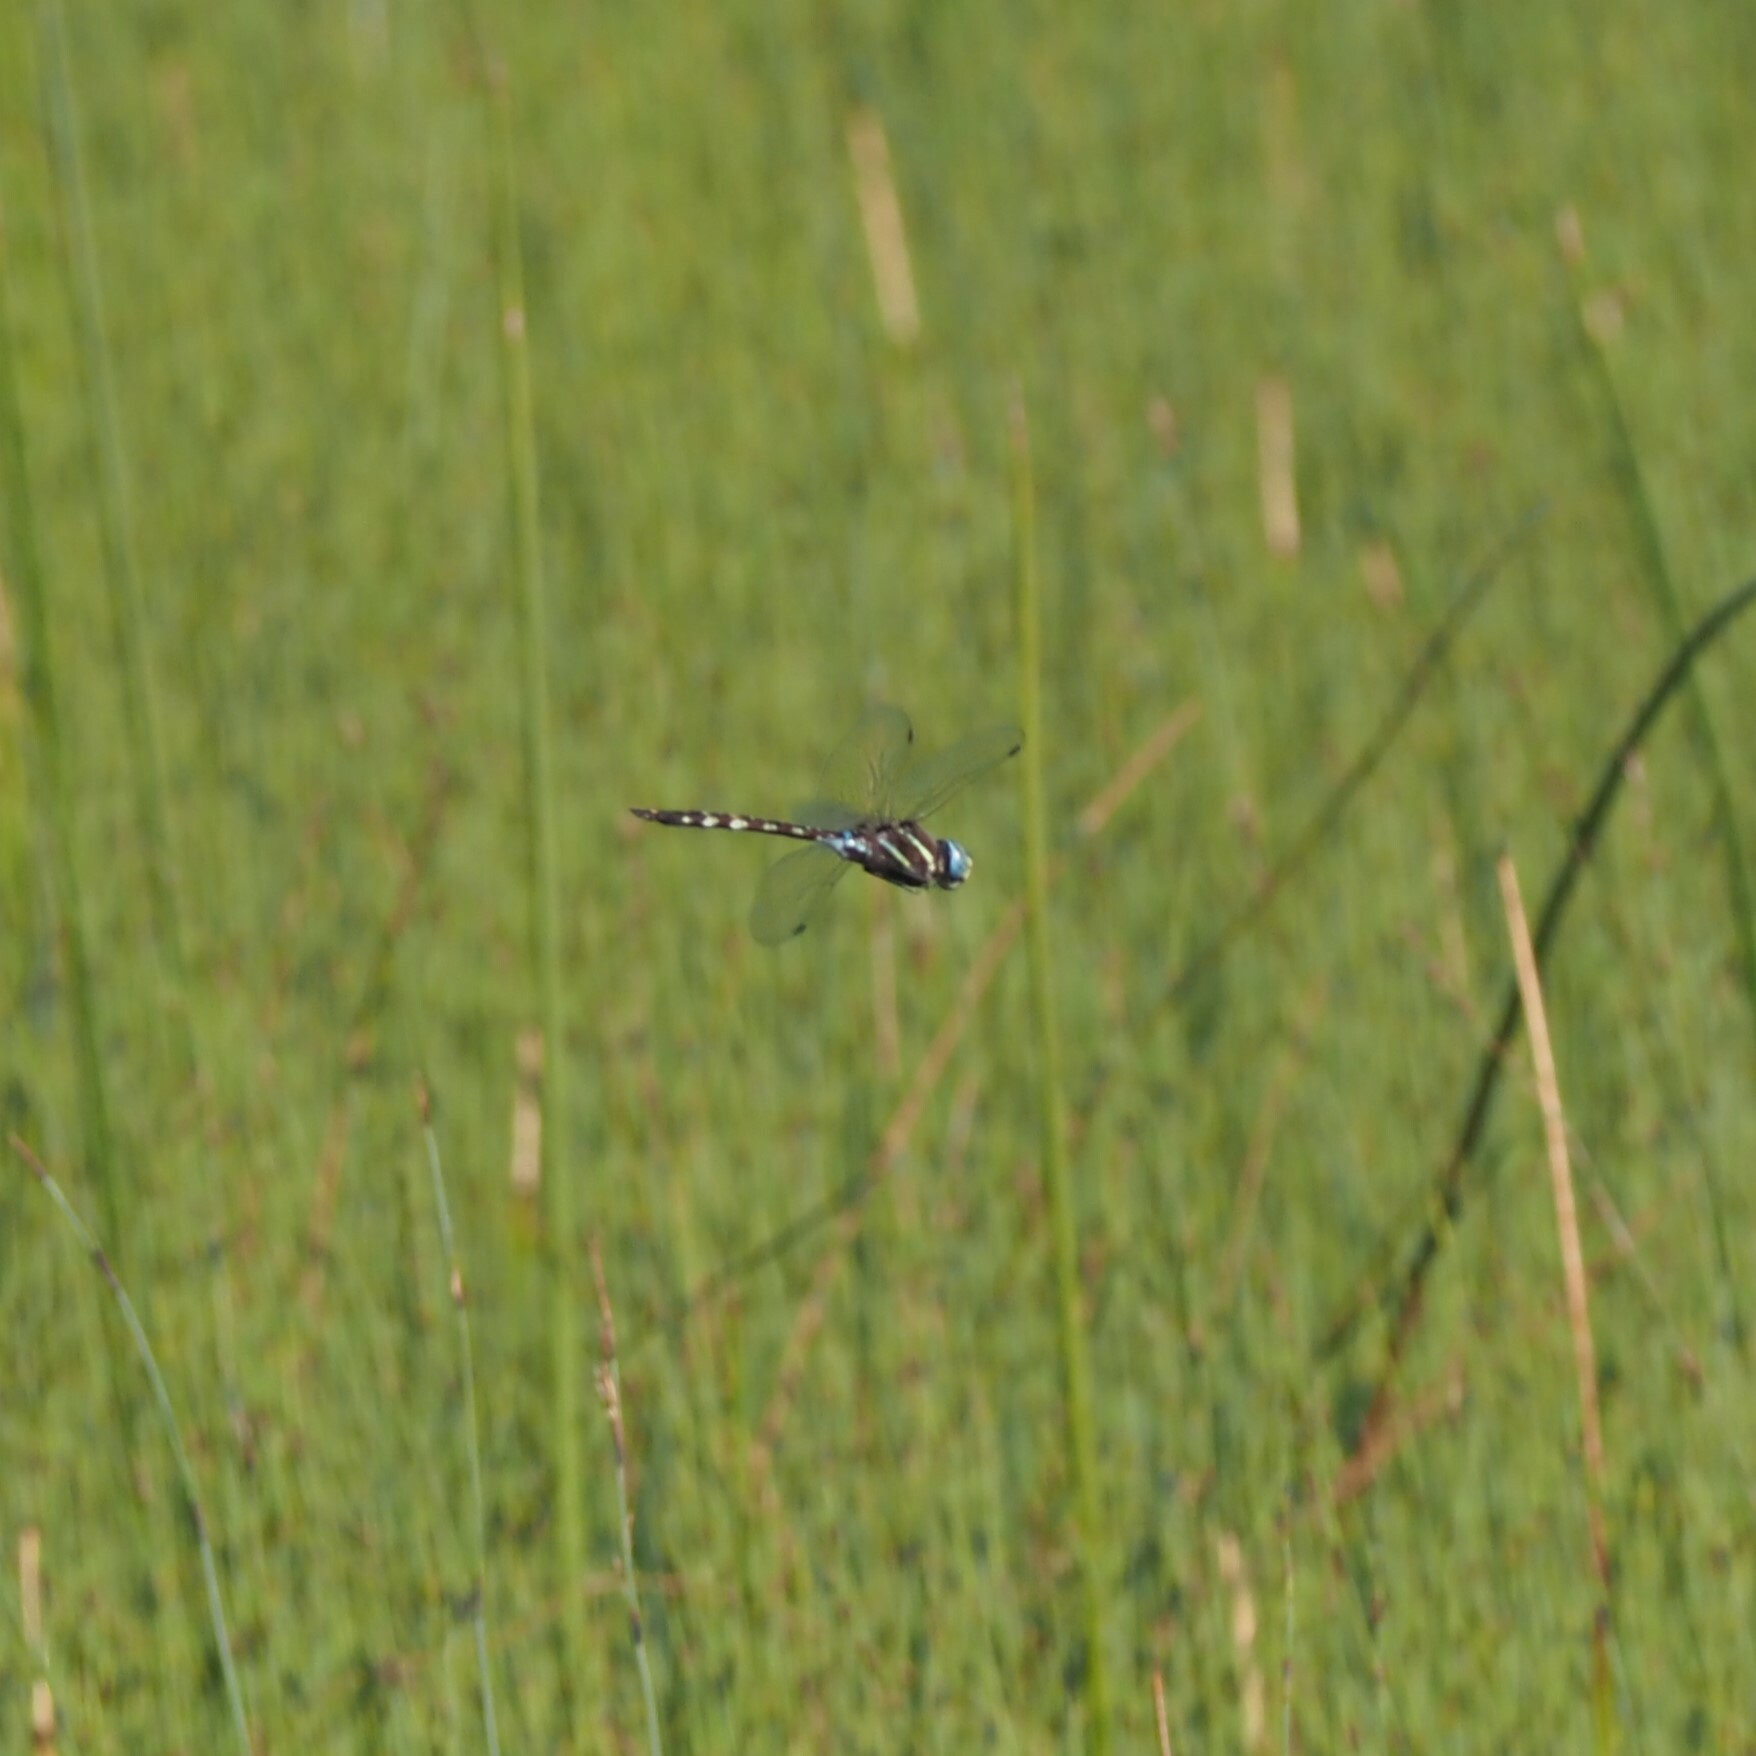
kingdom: Animalia
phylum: Arthropoda
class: Insecta
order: Odonata
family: Aeshnidae
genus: Aeshna
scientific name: Aeshna brevistyla
